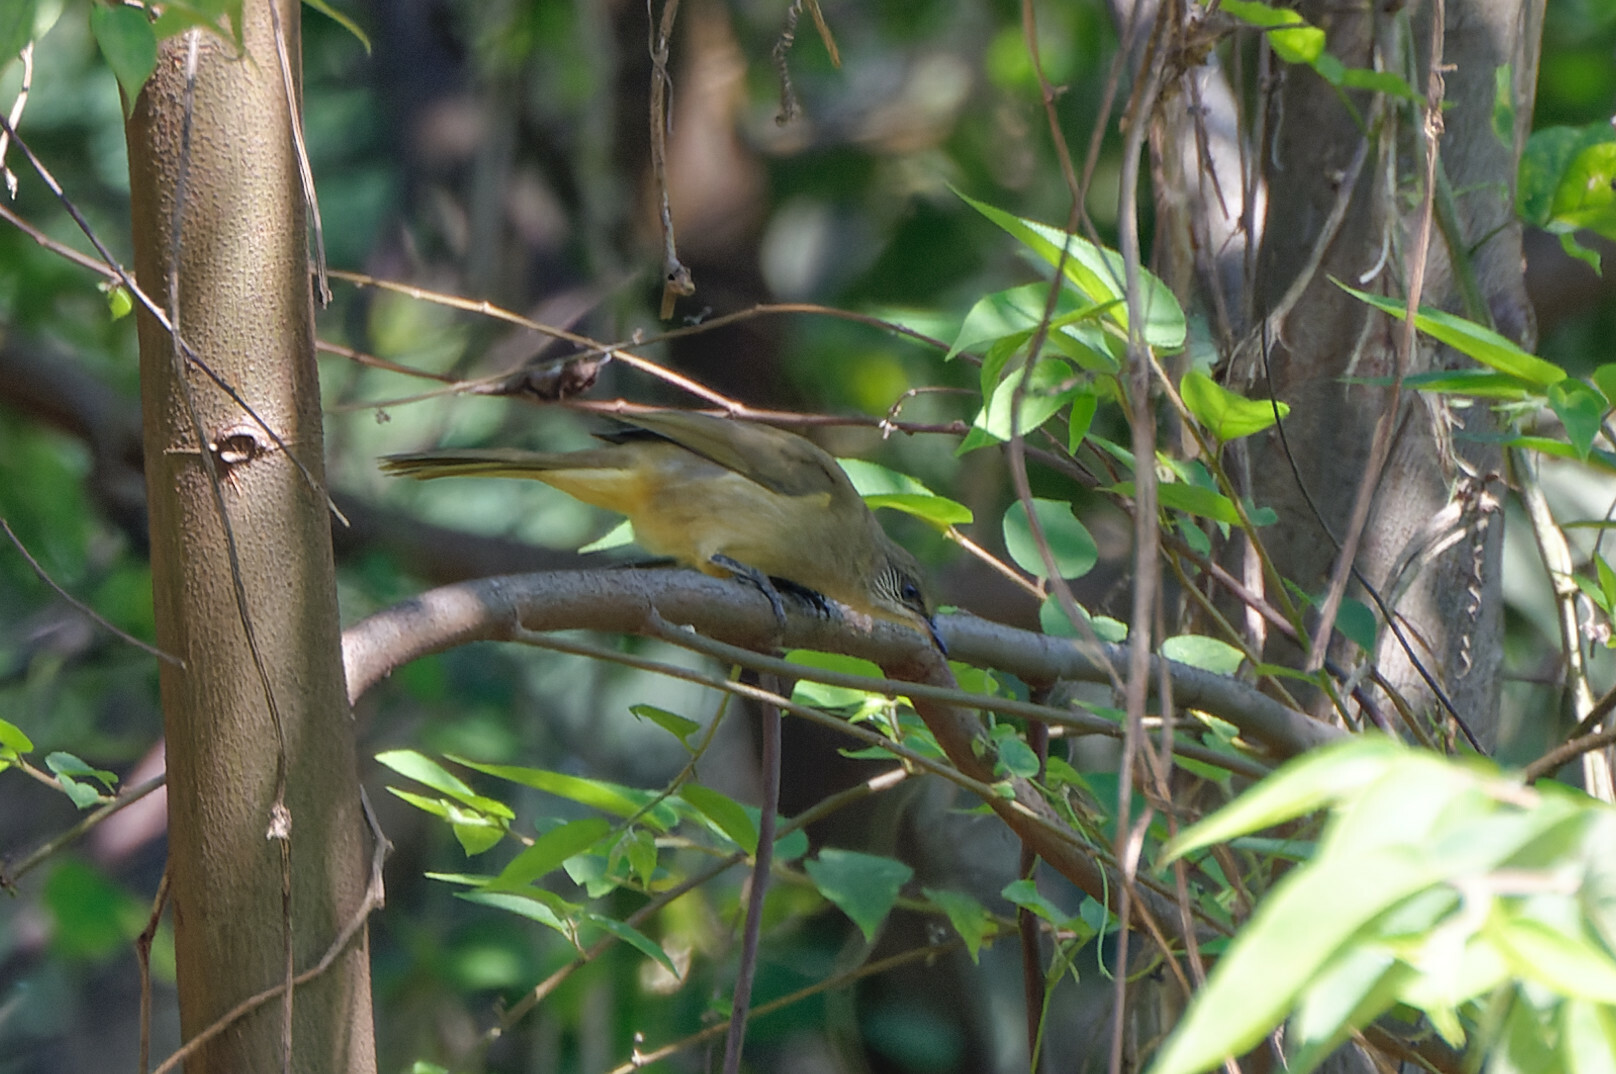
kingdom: Animalia
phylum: Chordata
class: Aves
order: Passeriformes
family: Pycnonotidae
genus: Pycnonotus
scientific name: Pycnonotus blanfordi
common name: Streak-eared bulbul
